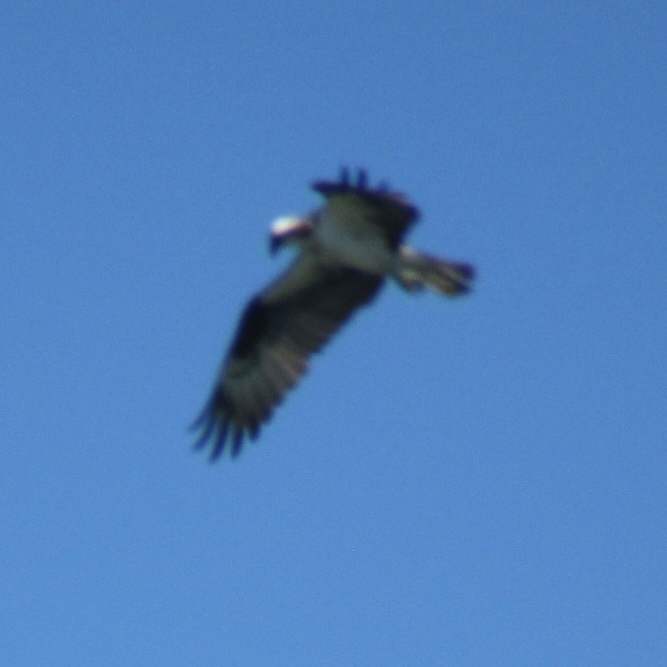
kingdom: Animalia
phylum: Chordata
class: Aves
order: Accipitriformes
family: Pandionidae
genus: Pandion
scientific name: Pandion haliaetus
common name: Osprey
